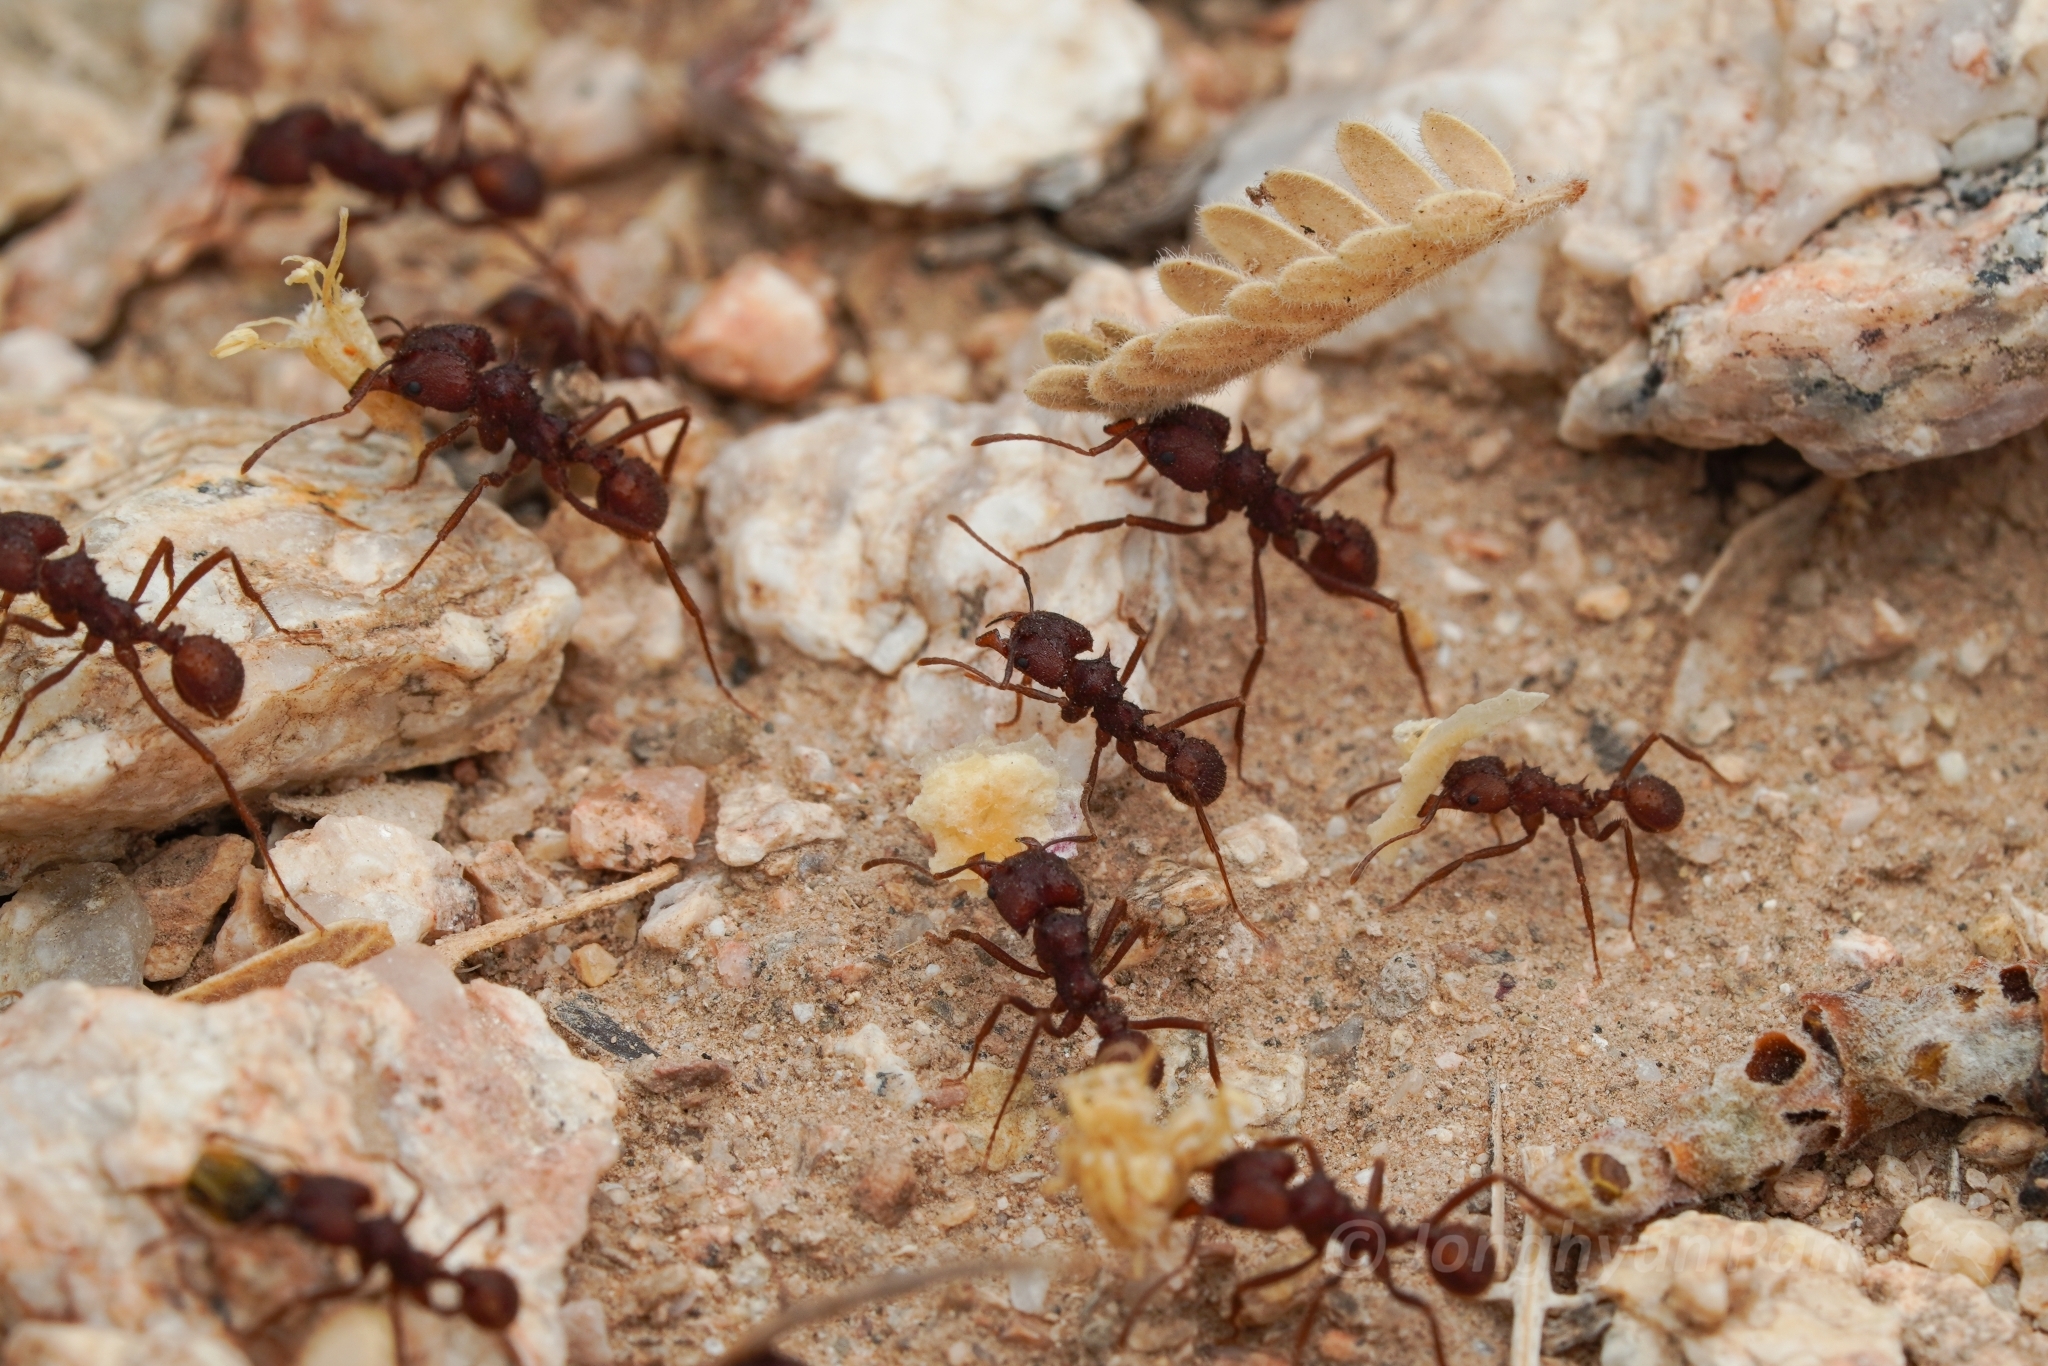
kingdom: Animalia
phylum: Arthropoda
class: Insecta
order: Hymenoptera
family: Formicidae
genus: Acromyrmex
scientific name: Acromyrmex versicolor
